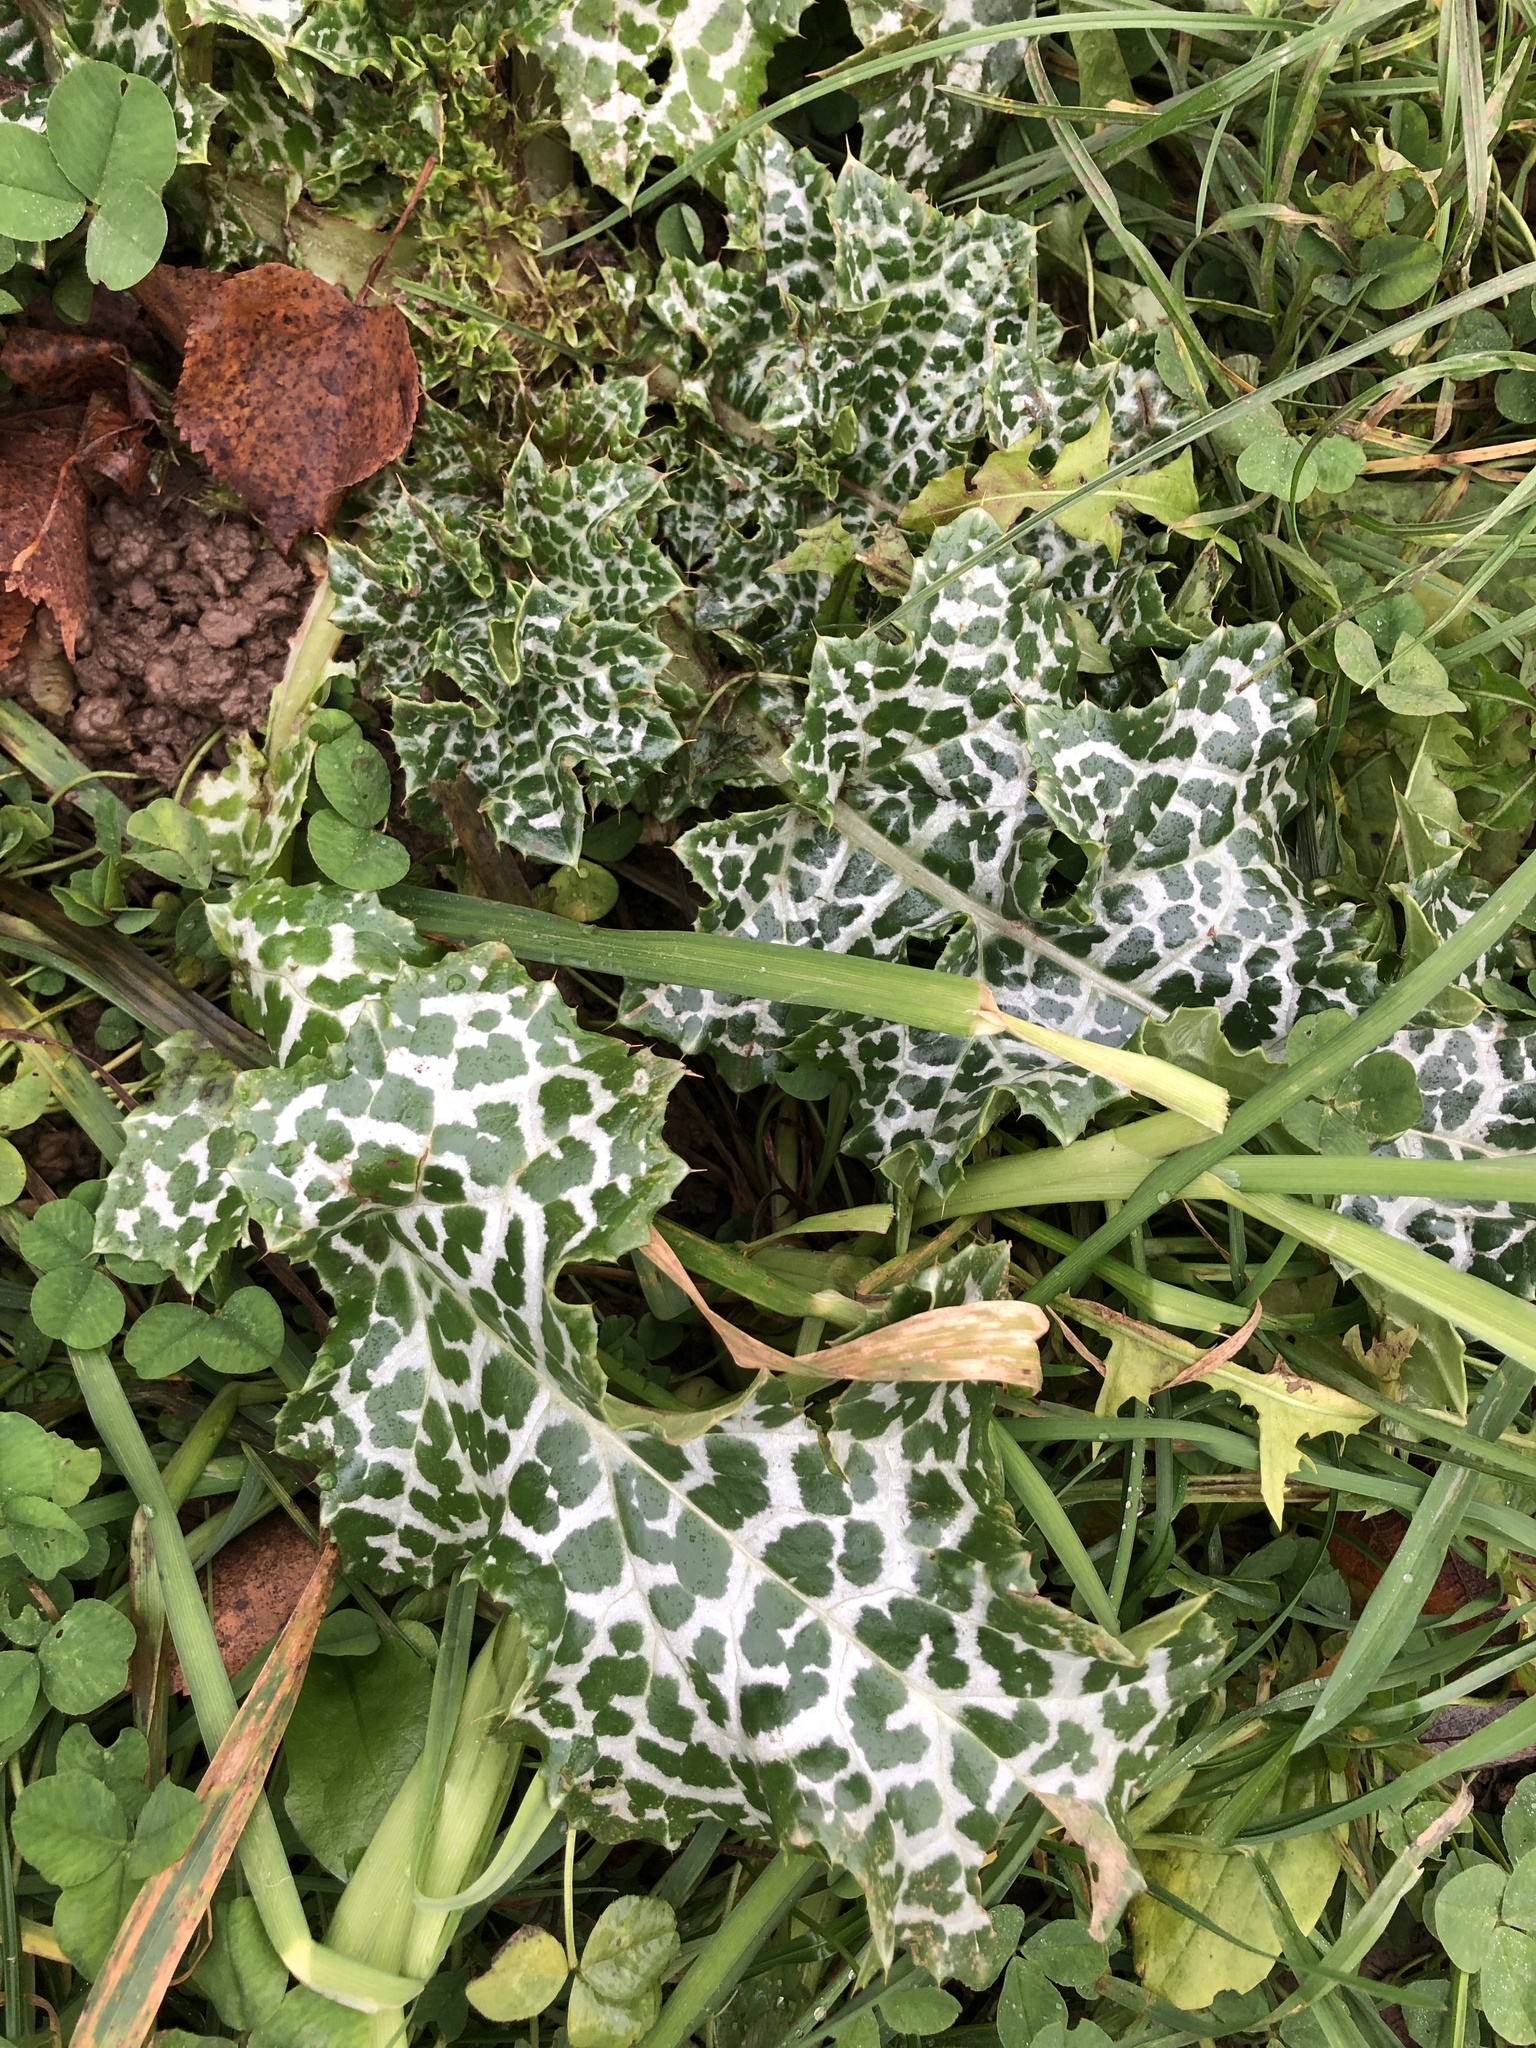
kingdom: Plantae
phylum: Tracheophyta
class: Magnoliopsida
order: Asterales
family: Asteraceae
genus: Silybum
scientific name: Silybum marianum
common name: Milk thistle
